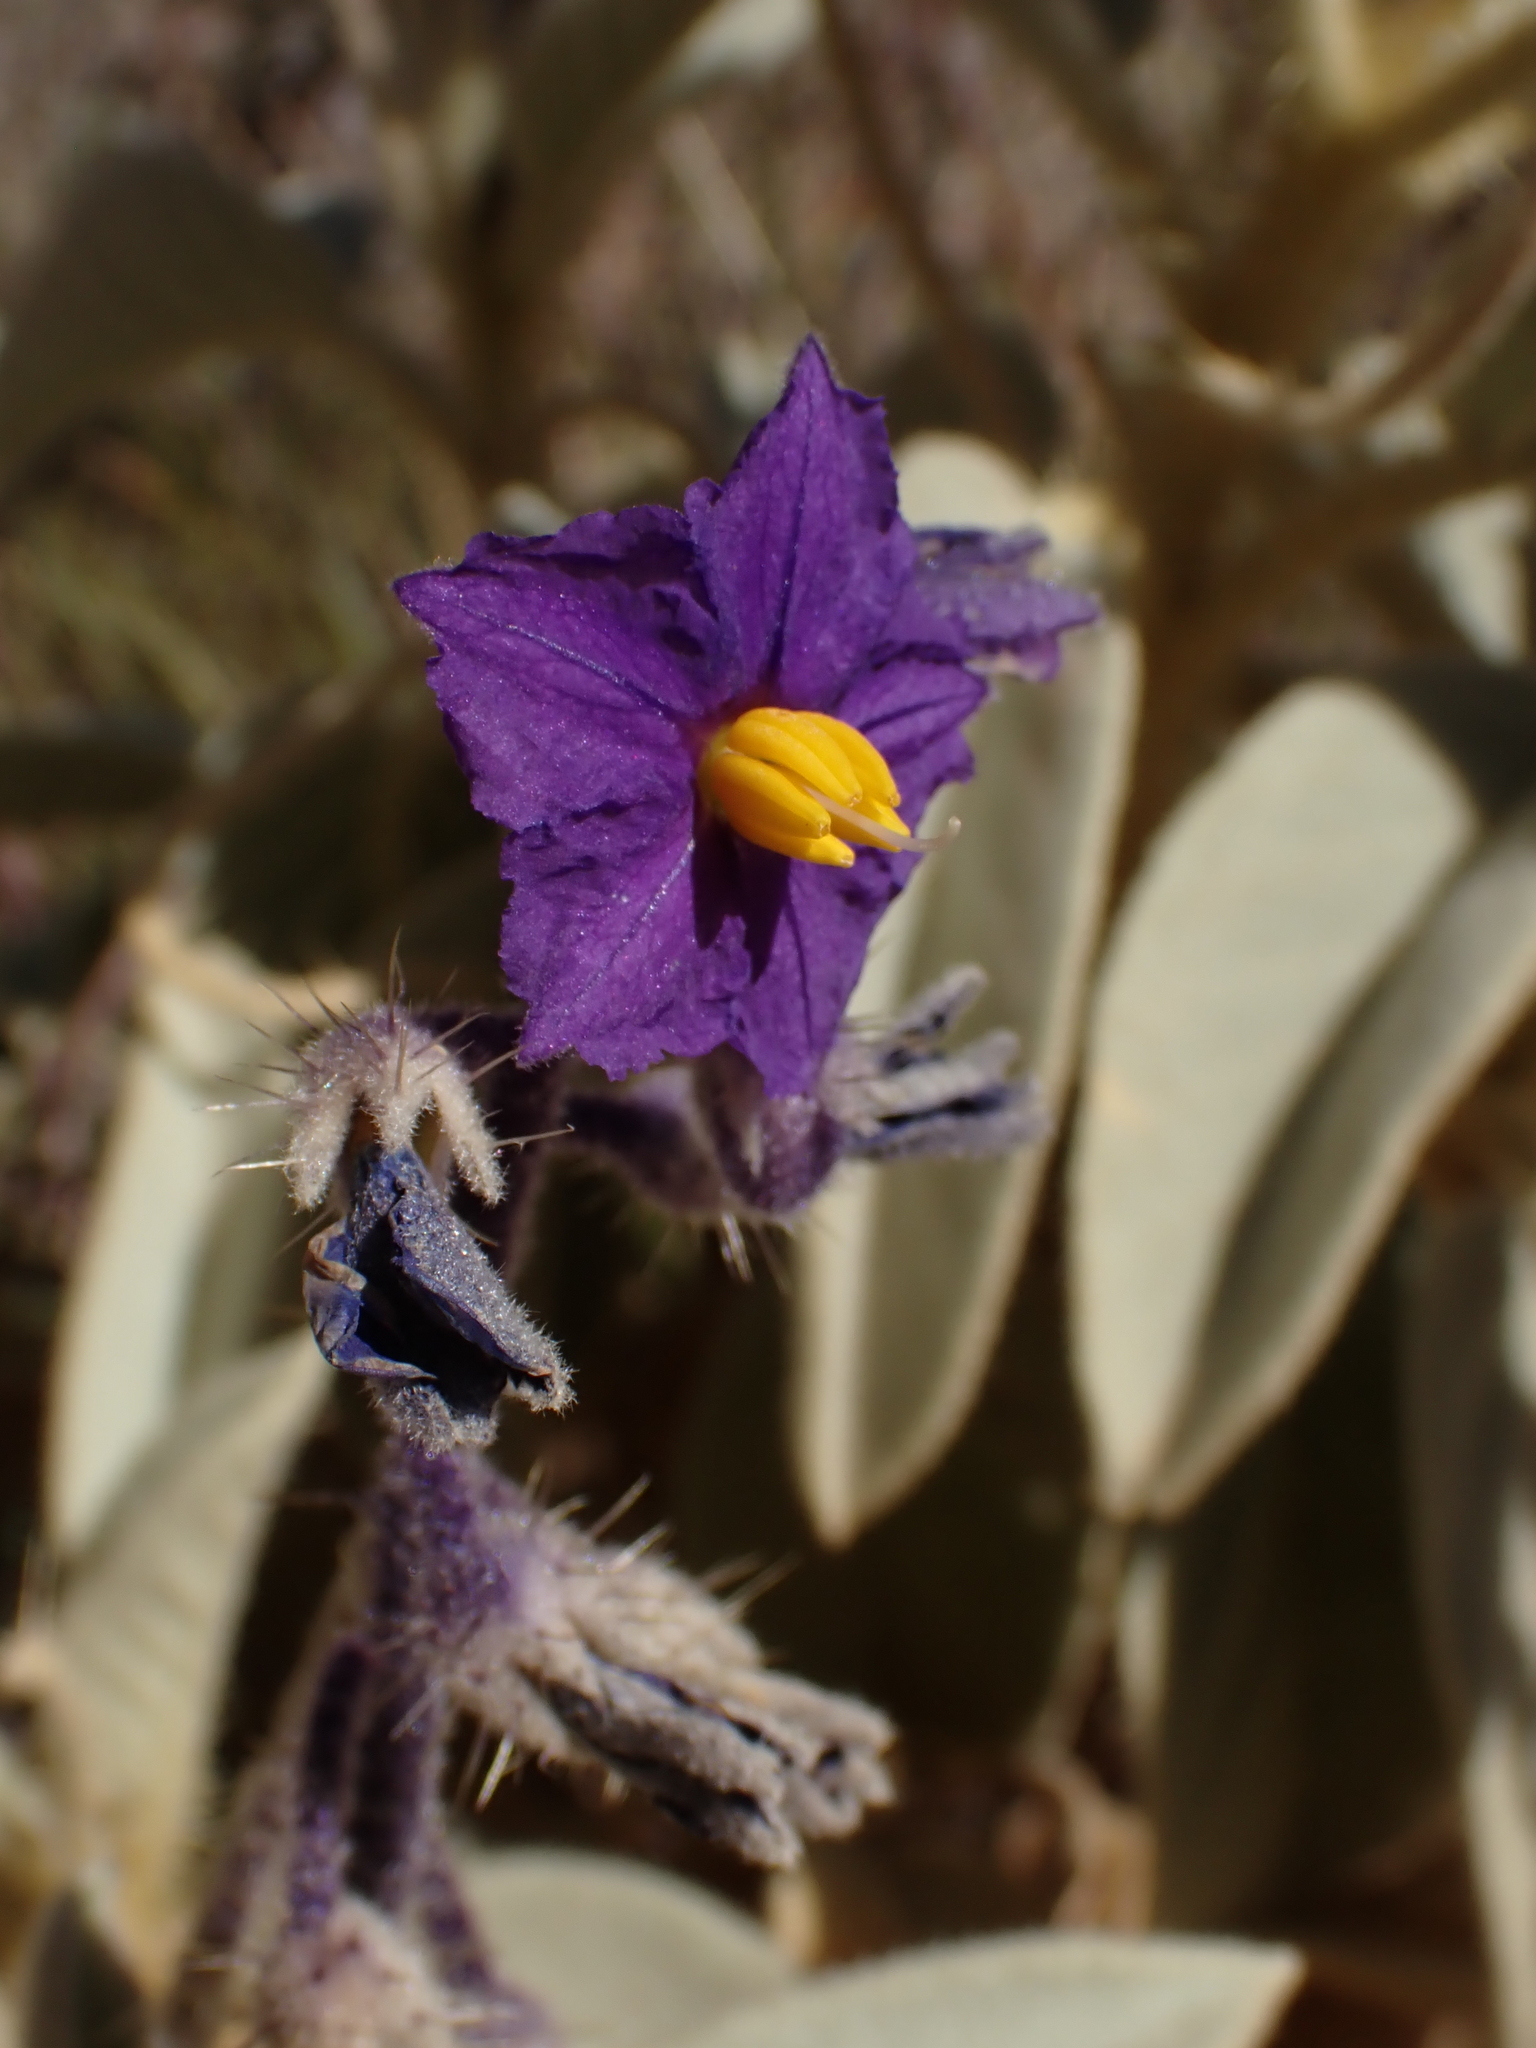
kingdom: Plantae
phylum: Tracheophyta
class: Magnoliopsida
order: Solanales
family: Solanaceae
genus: Solanum
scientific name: Solanum quadriloculatum
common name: Wild tomato
